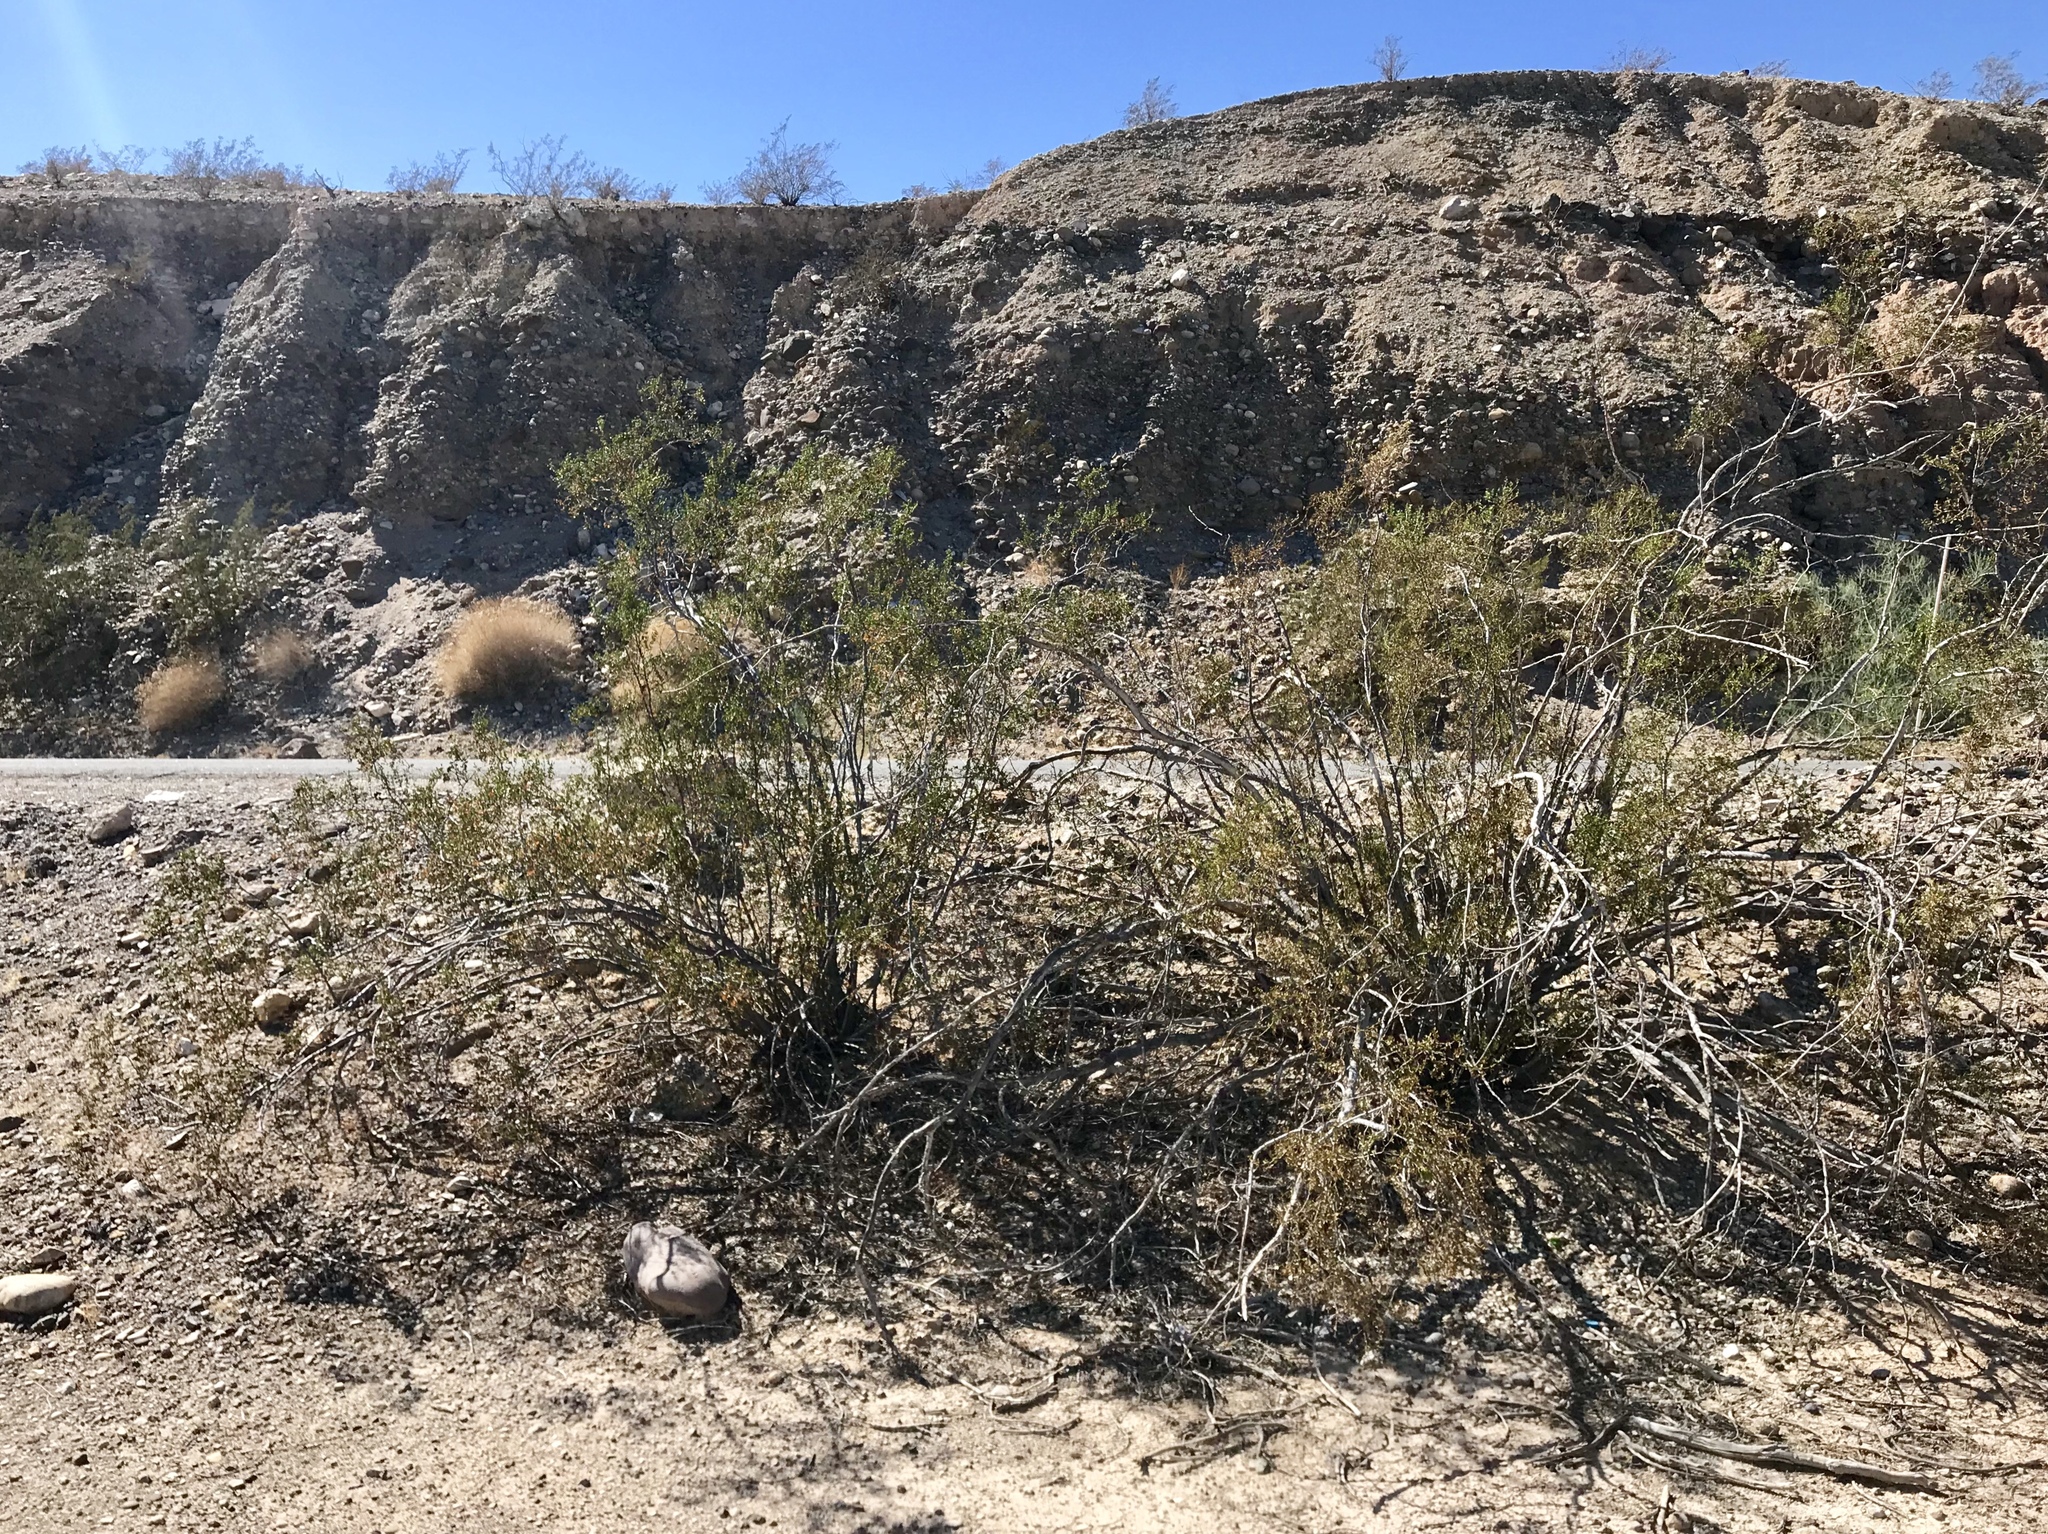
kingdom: Plantae
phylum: Tracheophyta
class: Magnoliopsida
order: Zygophyllales
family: Zygophyllaceae
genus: Larrea
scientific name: Larrea tridentata
